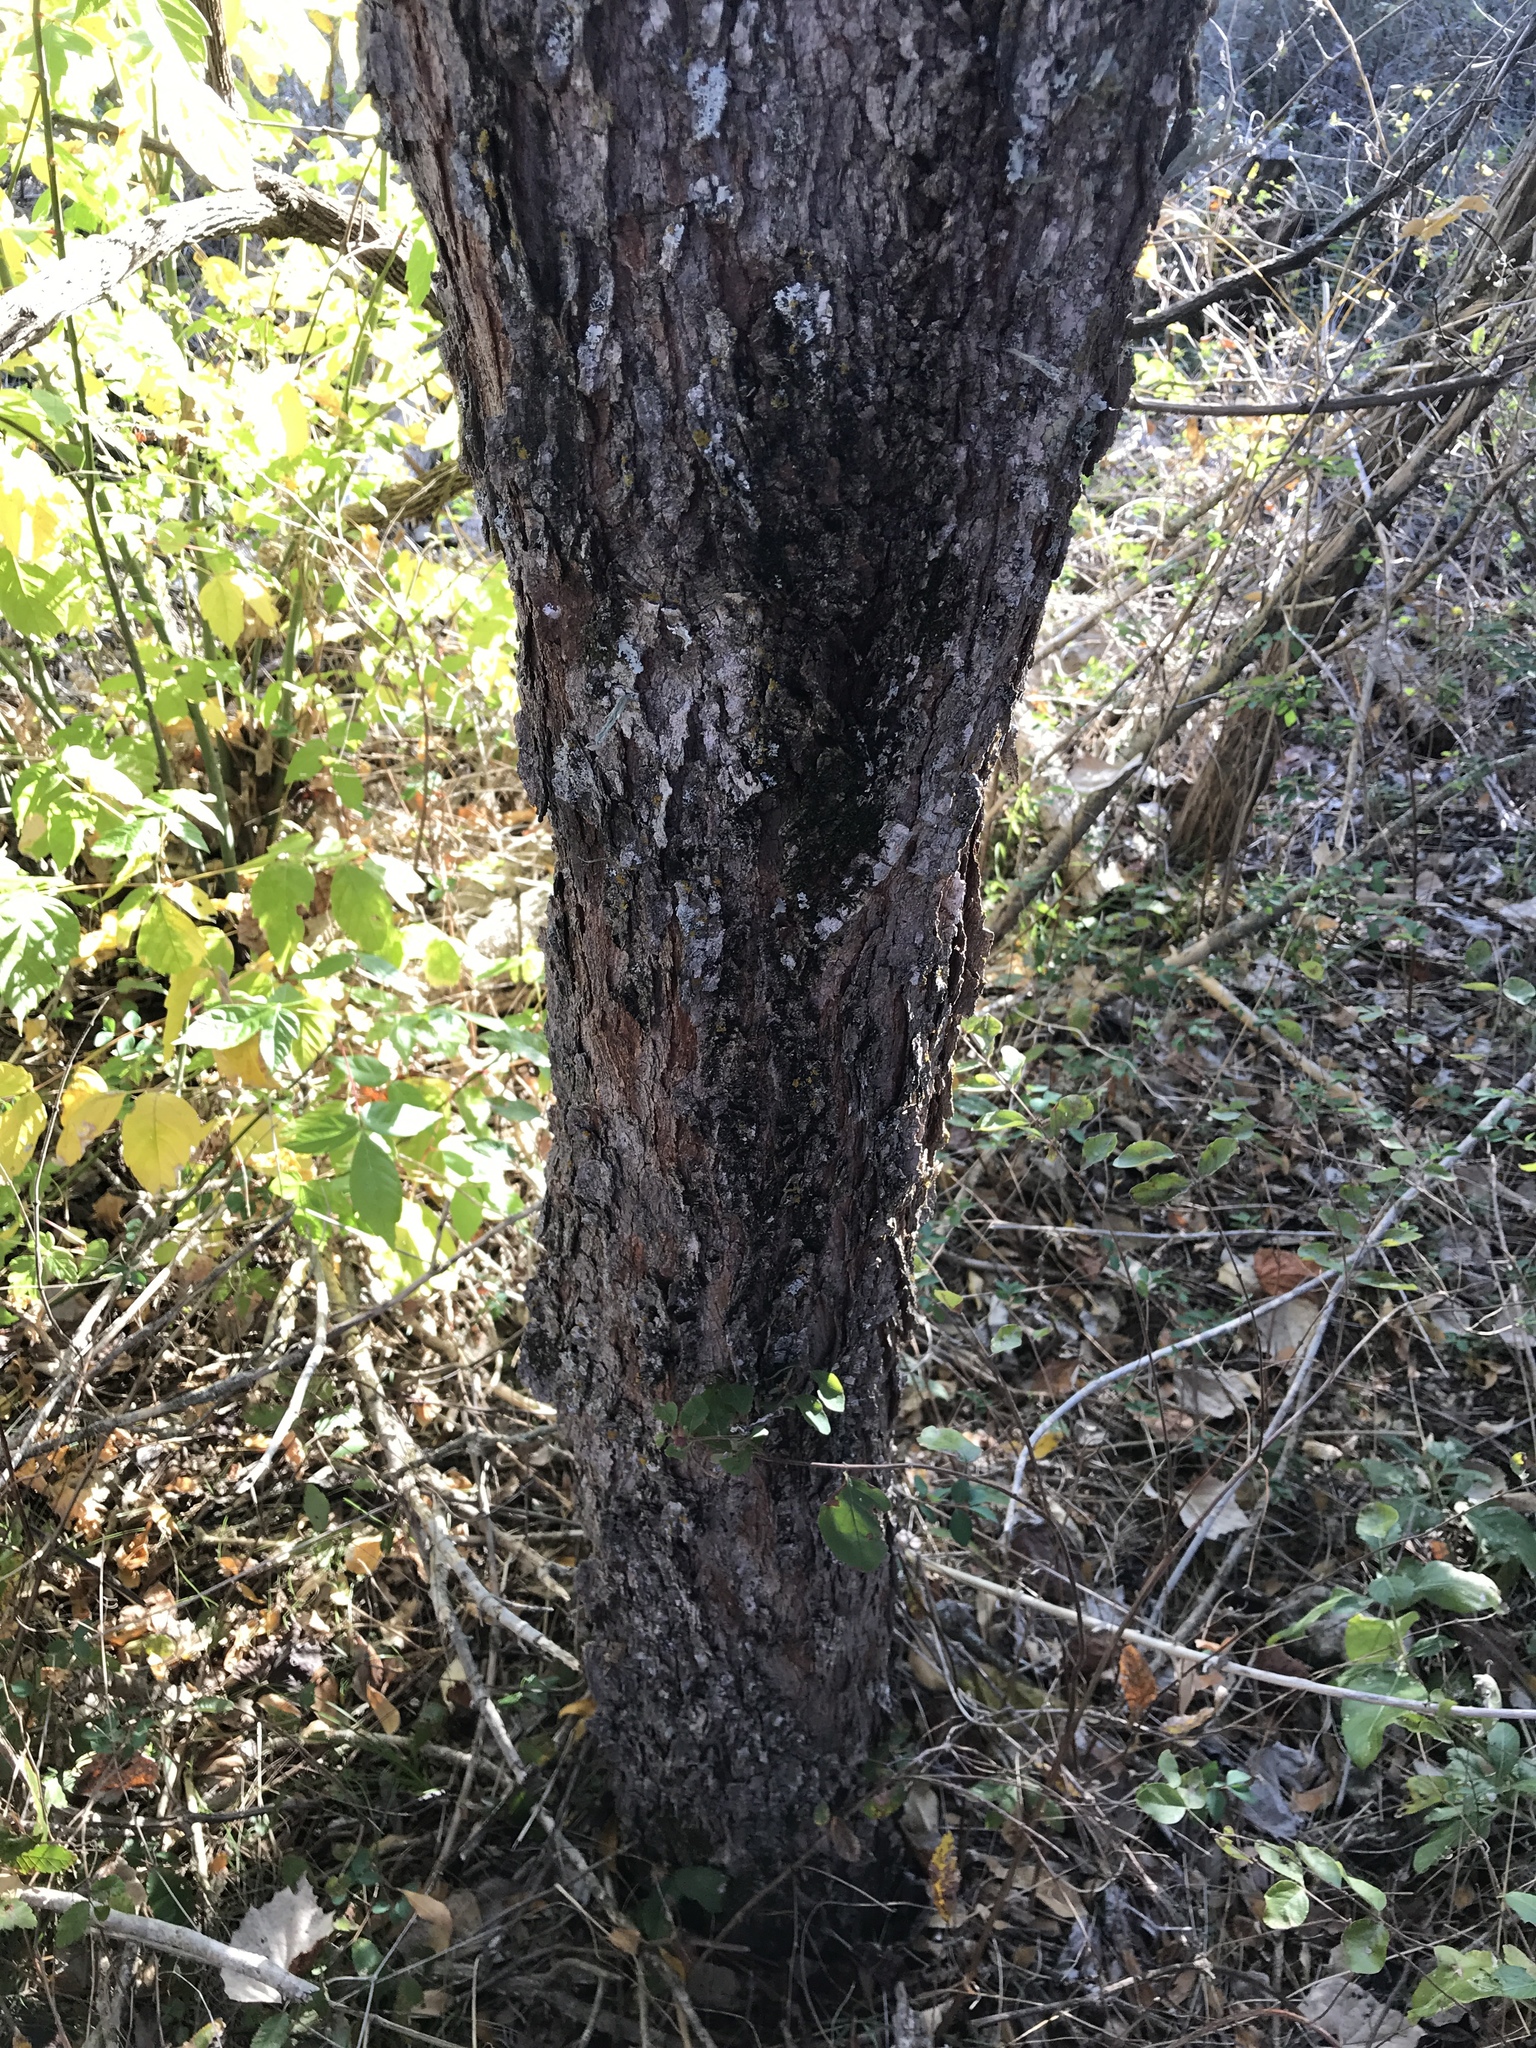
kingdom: Plantae
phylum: Tracheophyta
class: Magnoliopsida
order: Sapindales
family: Sapindaceae
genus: Sapindus
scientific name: Sapindus drummondii
